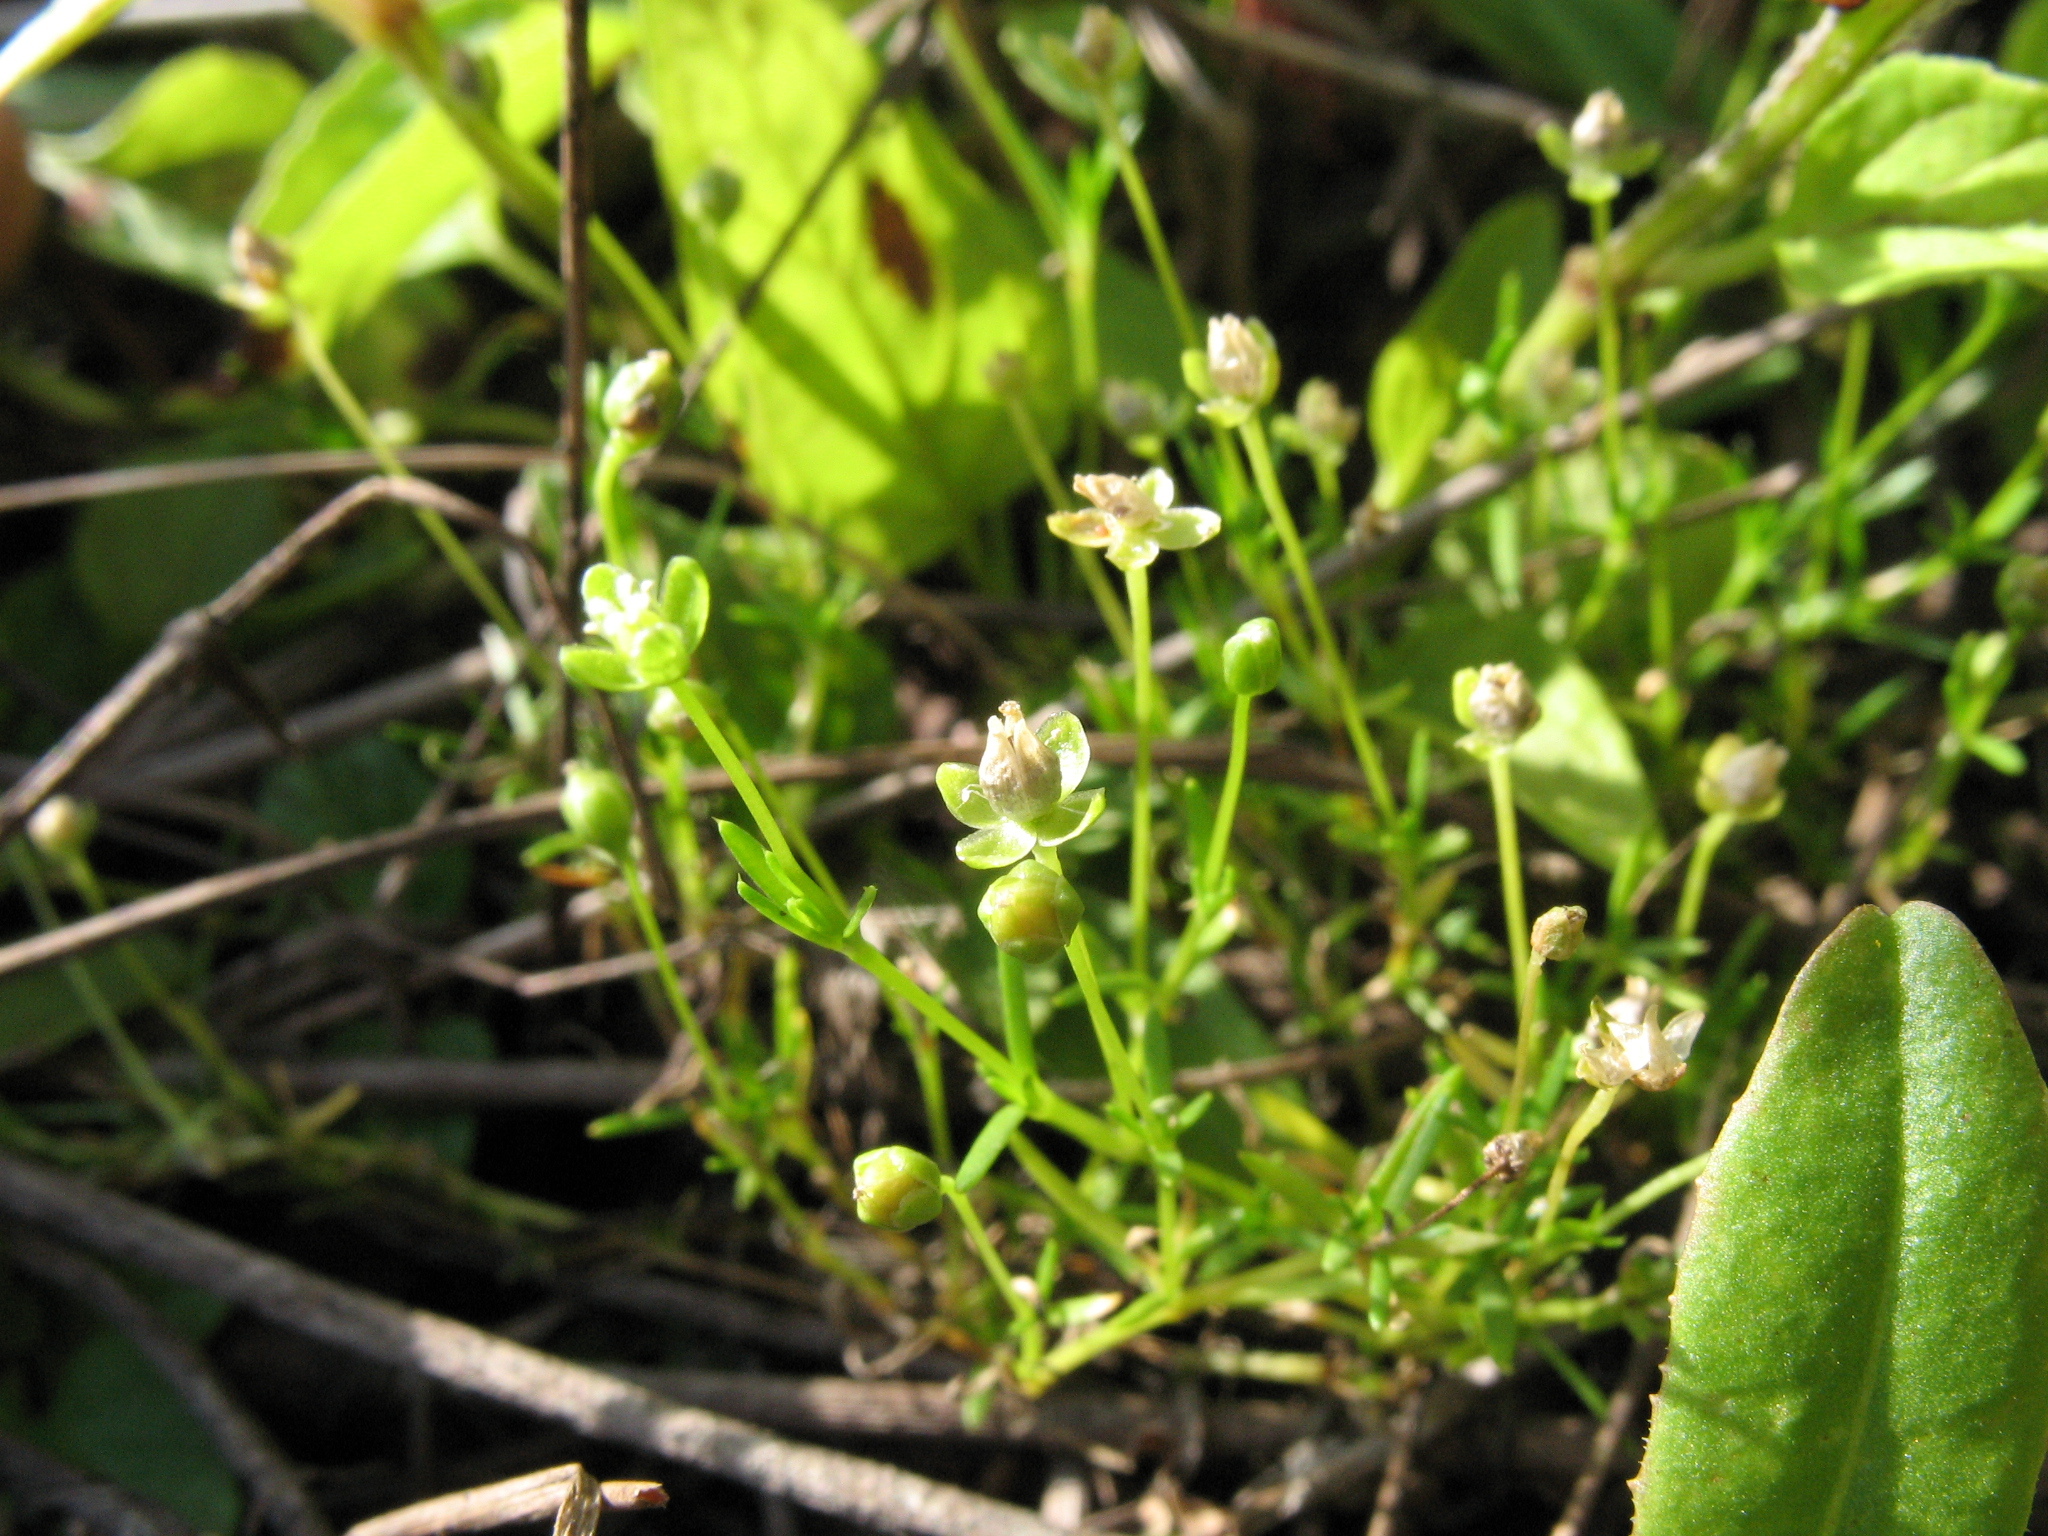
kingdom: Plantae
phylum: Tracheophyta
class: Magnoliopsida
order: Caryophyllales
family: Caryophyllaceae
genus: Sagina
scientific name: Sagina procumbens
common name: Procumbent pearlwort
